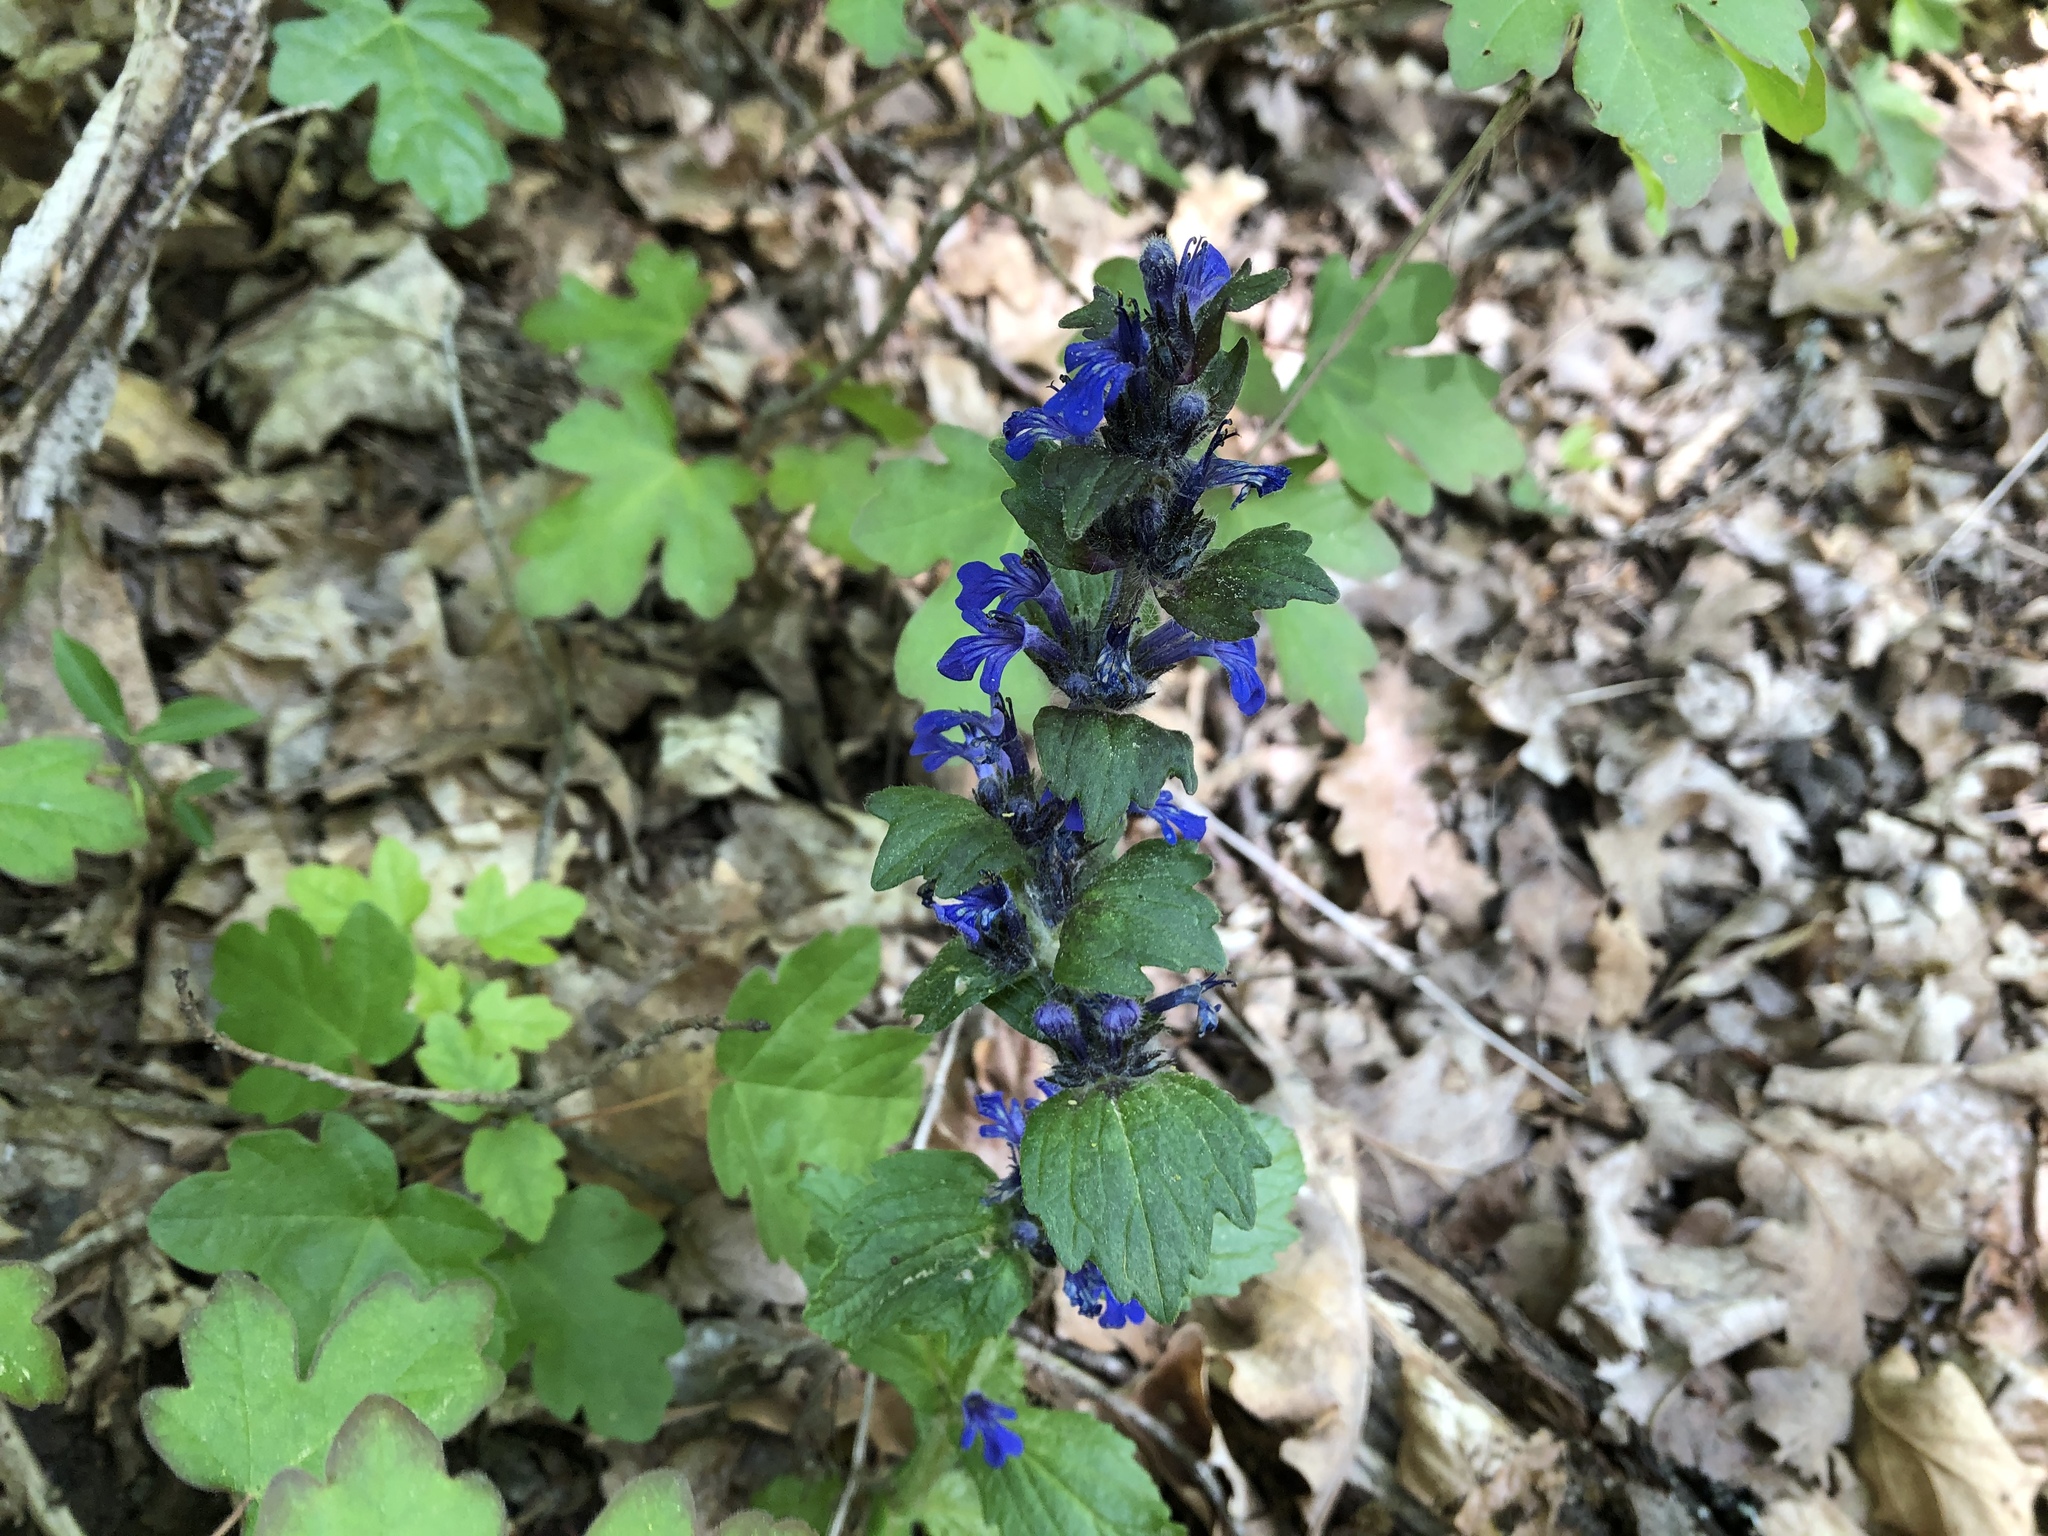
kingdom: Plantae
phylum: Tracheophyta
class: Magnoliopsida
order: Lamiales
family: Lamiaceae
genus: Ajuga
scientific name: Ajuga genevensis
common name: Blue bugle
